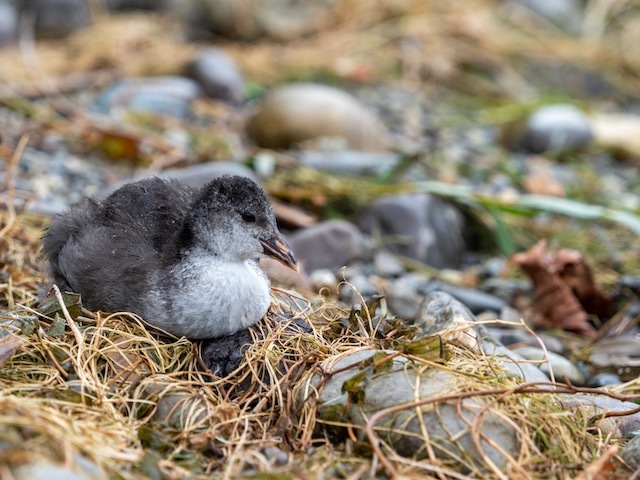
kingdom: Animalia
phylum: Chordata
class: Aves
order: Gruiformes
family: Rallidae
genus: Fulica
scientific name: Fulica atra
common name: Eurasian coot
